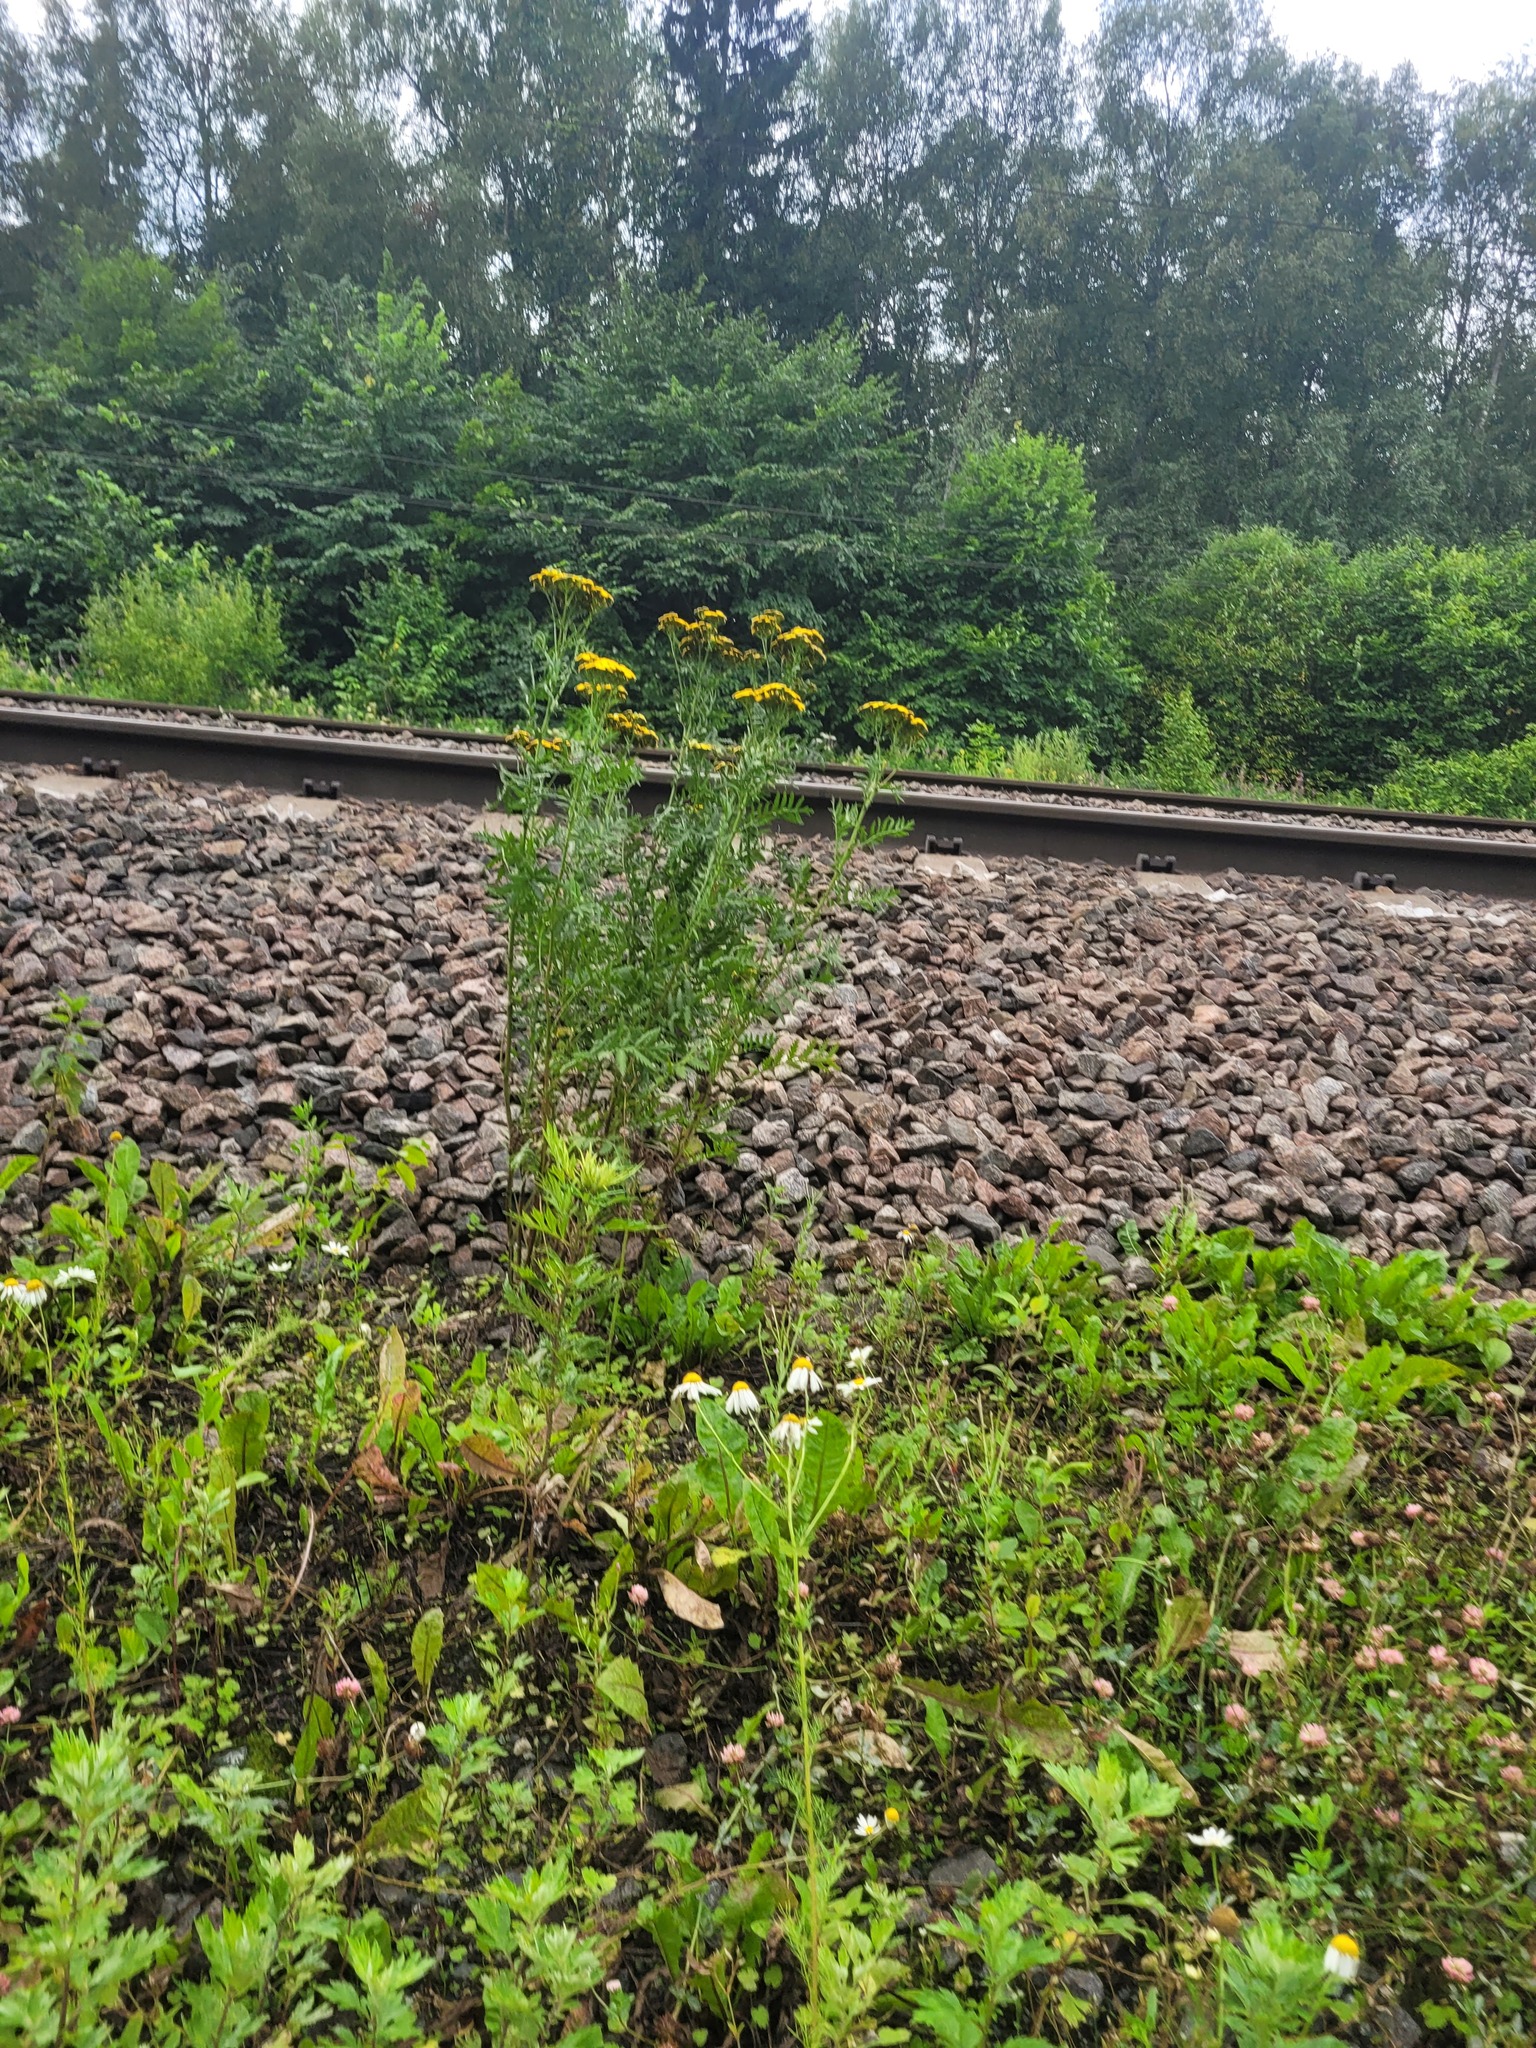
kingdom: Plantae
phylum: Tracheophyta
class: Magnoliopsida
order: Asterales
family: Asteraceae
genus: Tanacetum
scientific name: Tanacetum vulgare
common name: Common tansy
